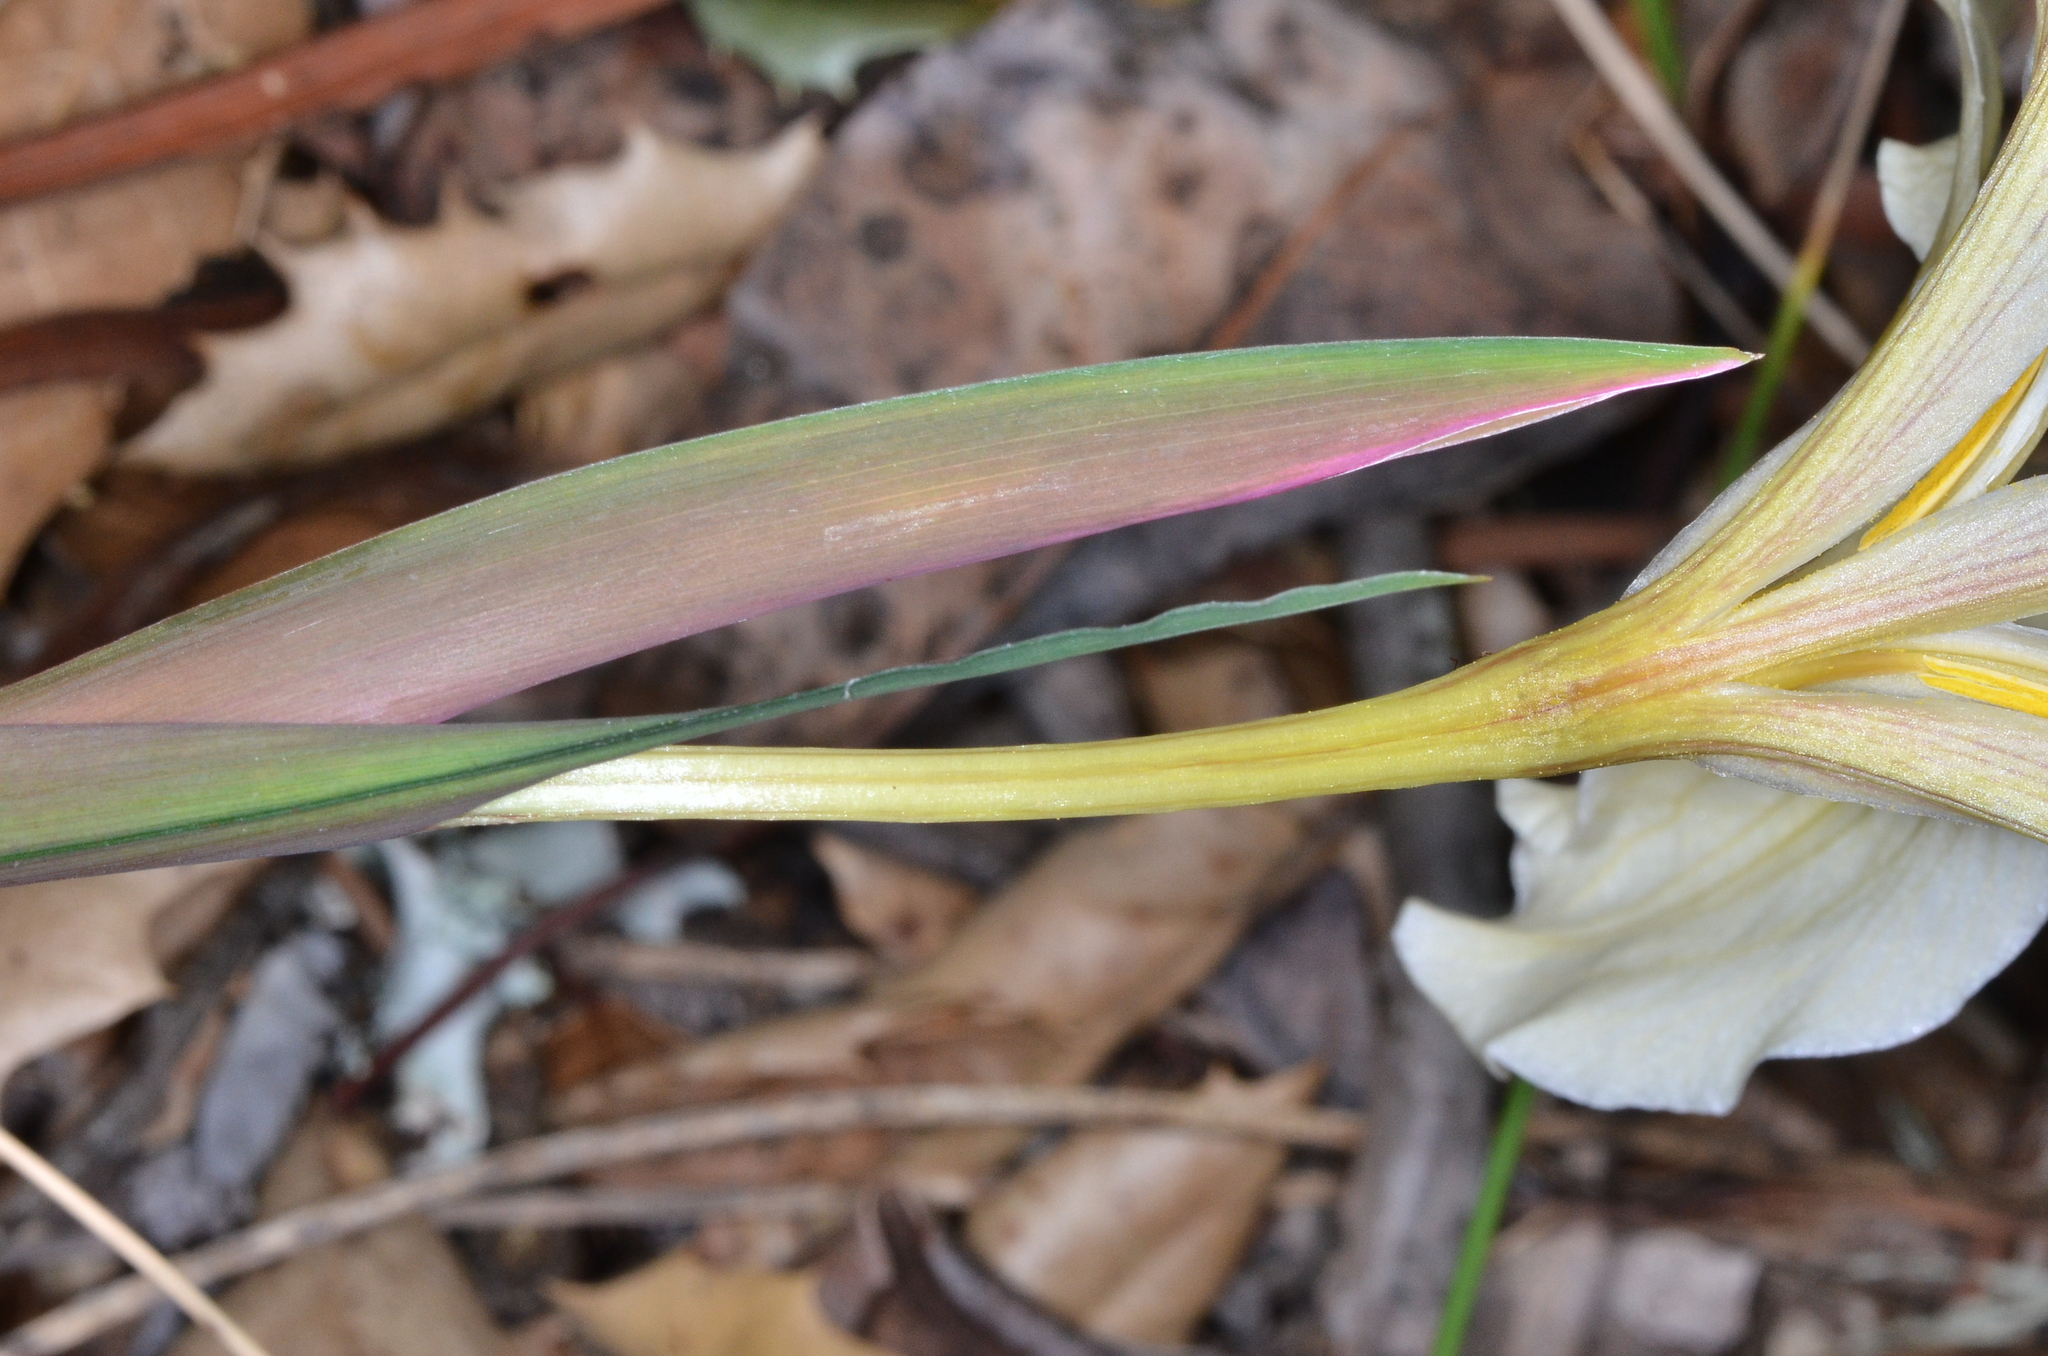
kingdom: Plantae
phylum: Tracheophyta
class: Liliopsida
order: Asparagales
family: Iridaceae
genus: Iris
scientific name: Iris fernaldii
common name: Fernald's iris
